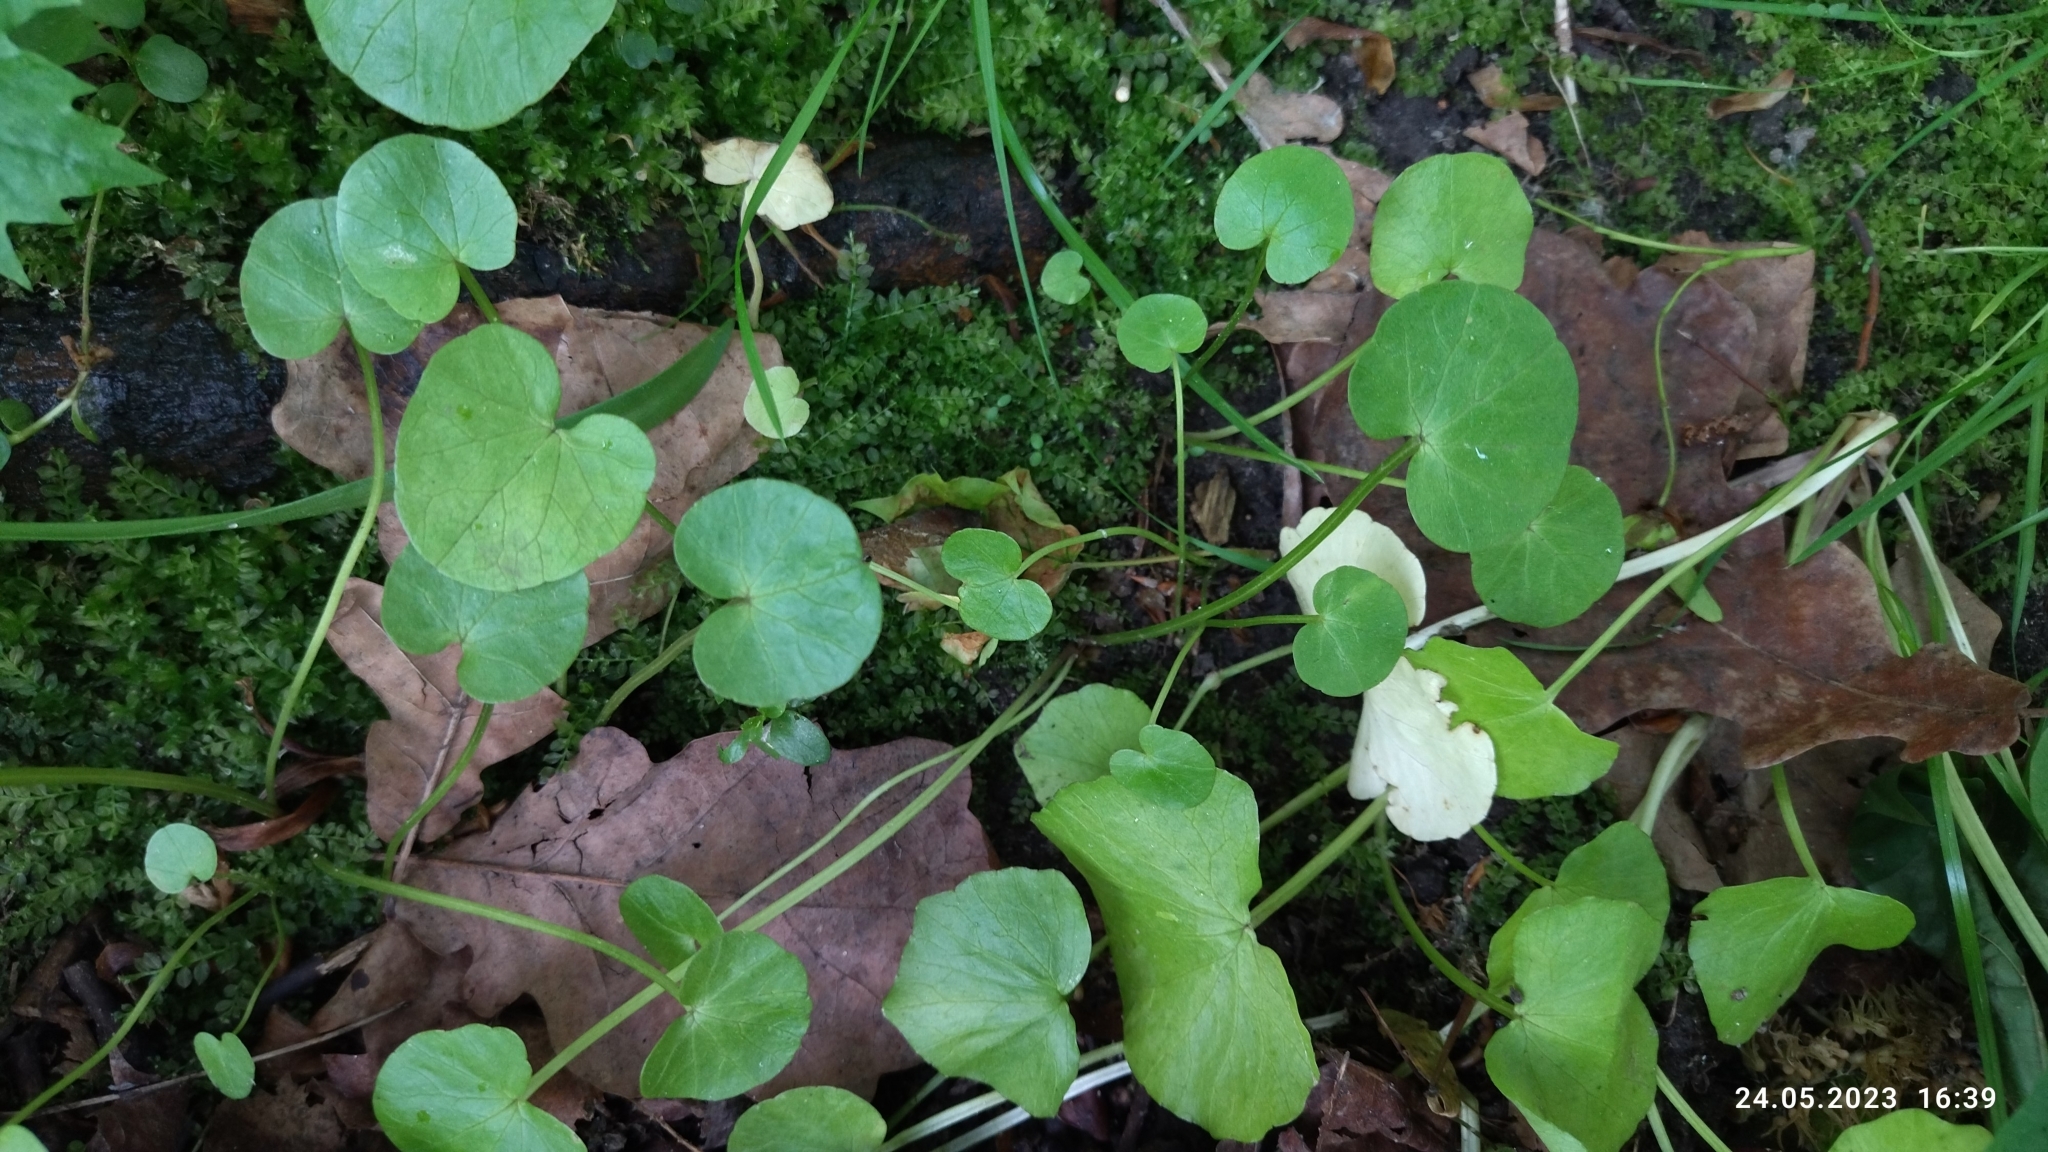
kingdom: Plantae
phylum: Tracheophyta
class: Magnoliopsida
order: Ranunculales
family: Ranunculaceae
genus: Ficaria
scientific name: Ficaria verna
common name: Lesser celandine
